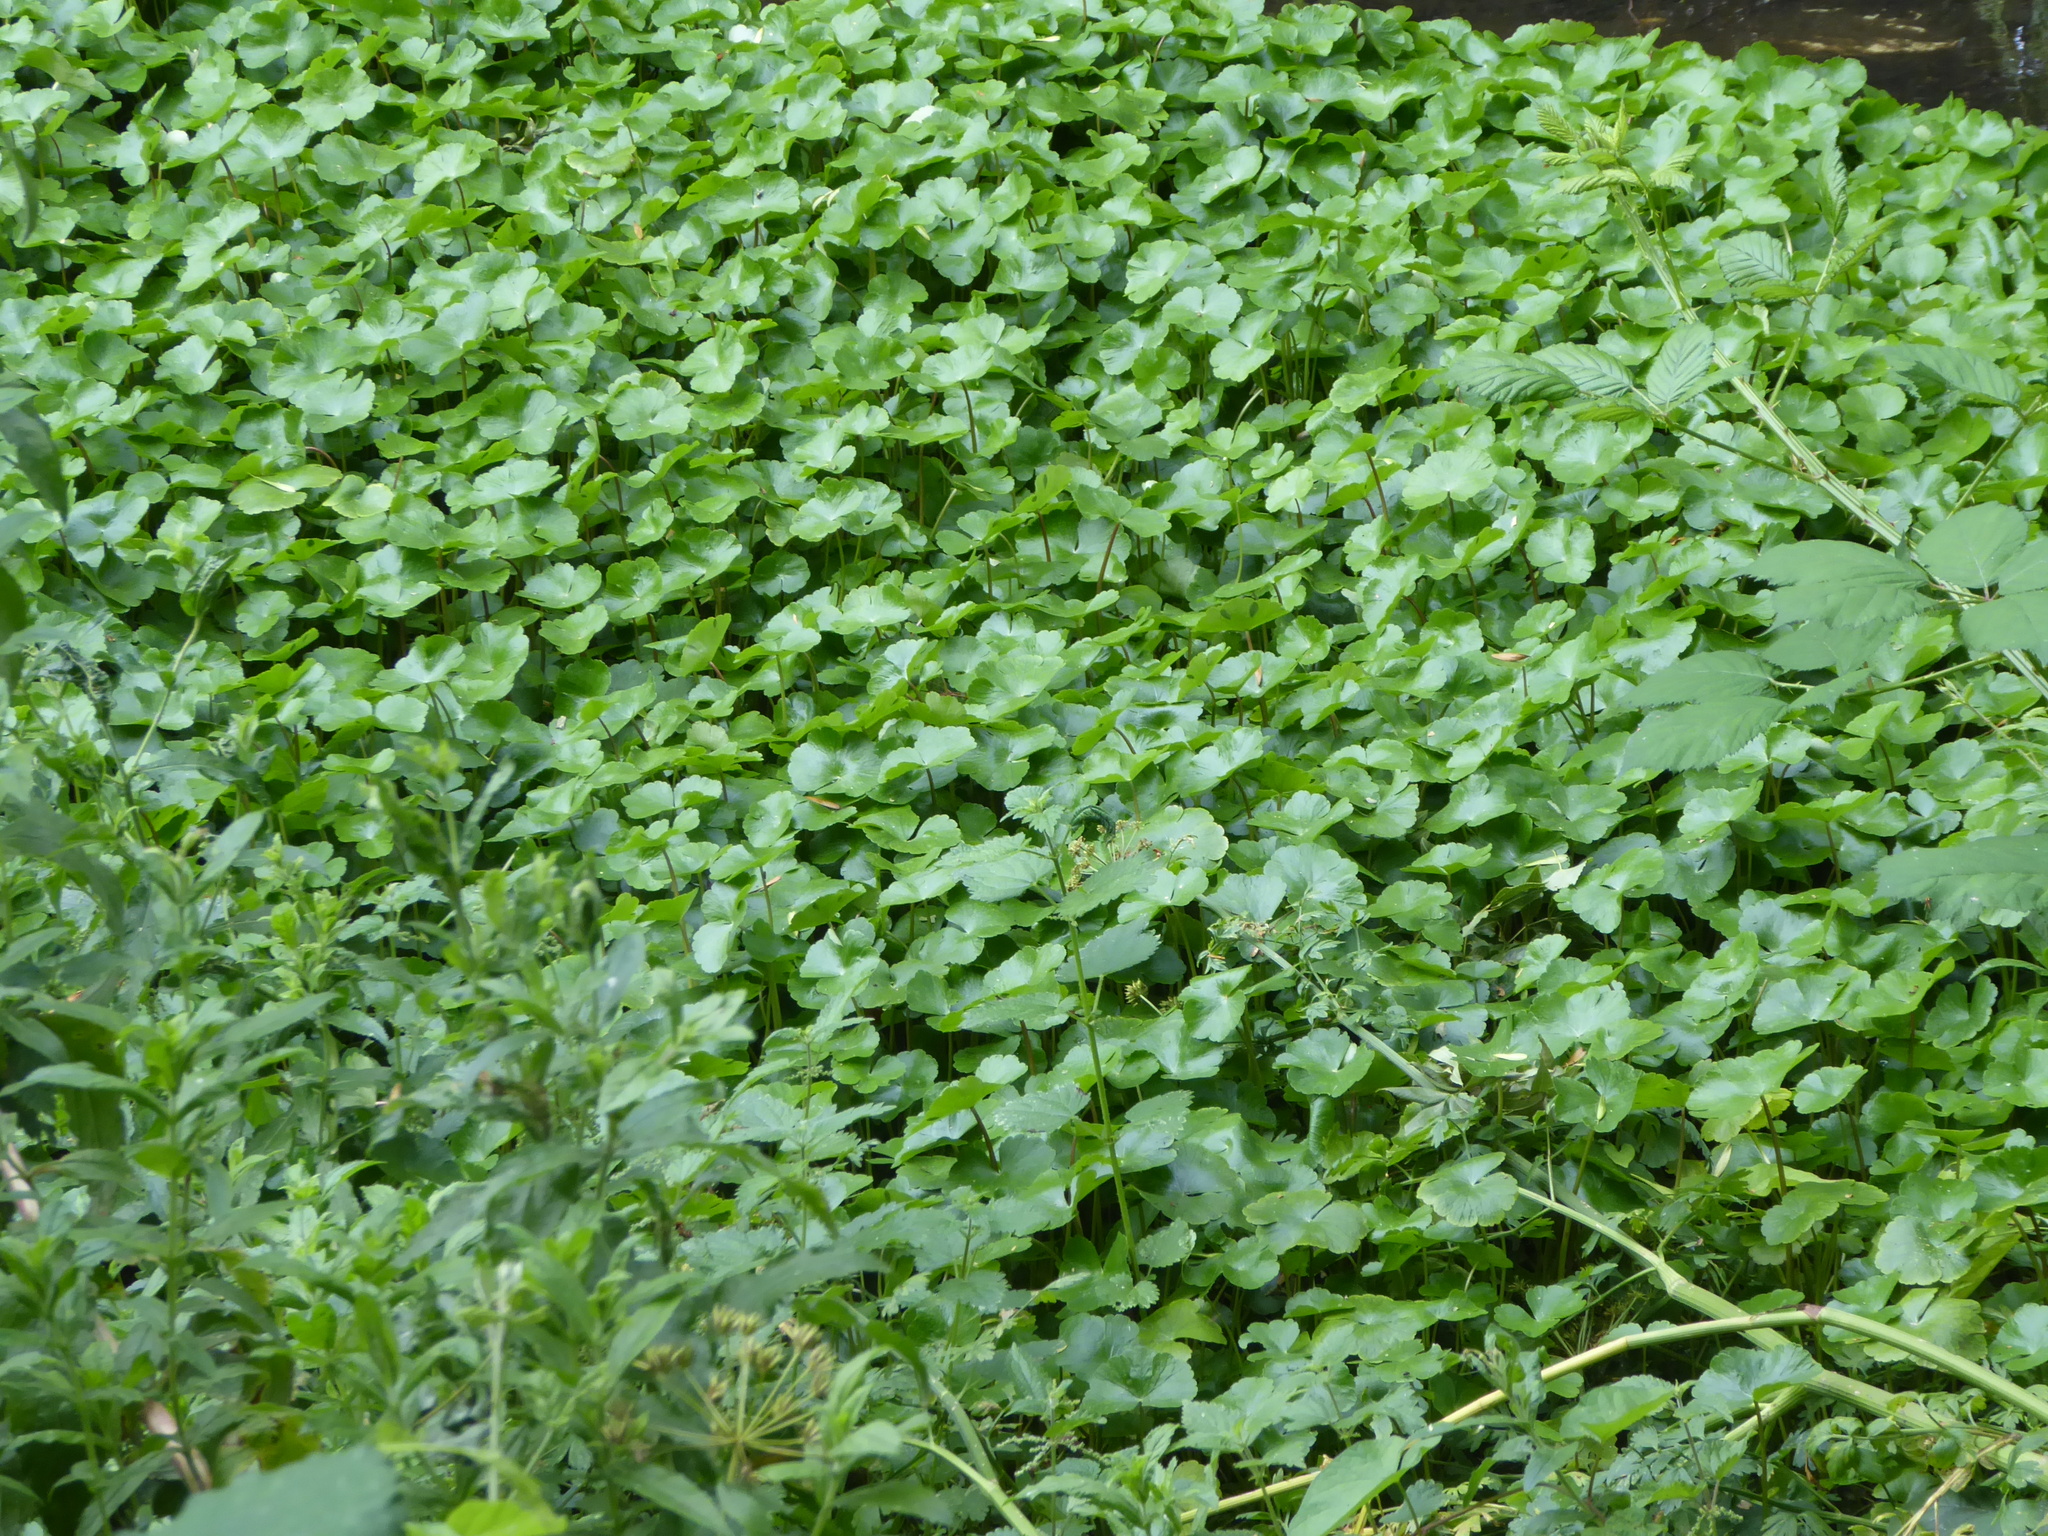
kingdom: Plantae
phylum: Tracheophyta
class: Magnoliopsida
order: Apiales
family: Araliaceae
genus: Hydrocotyle
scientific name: Hydrocotyle ranunculoides
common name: Floating pennywort
